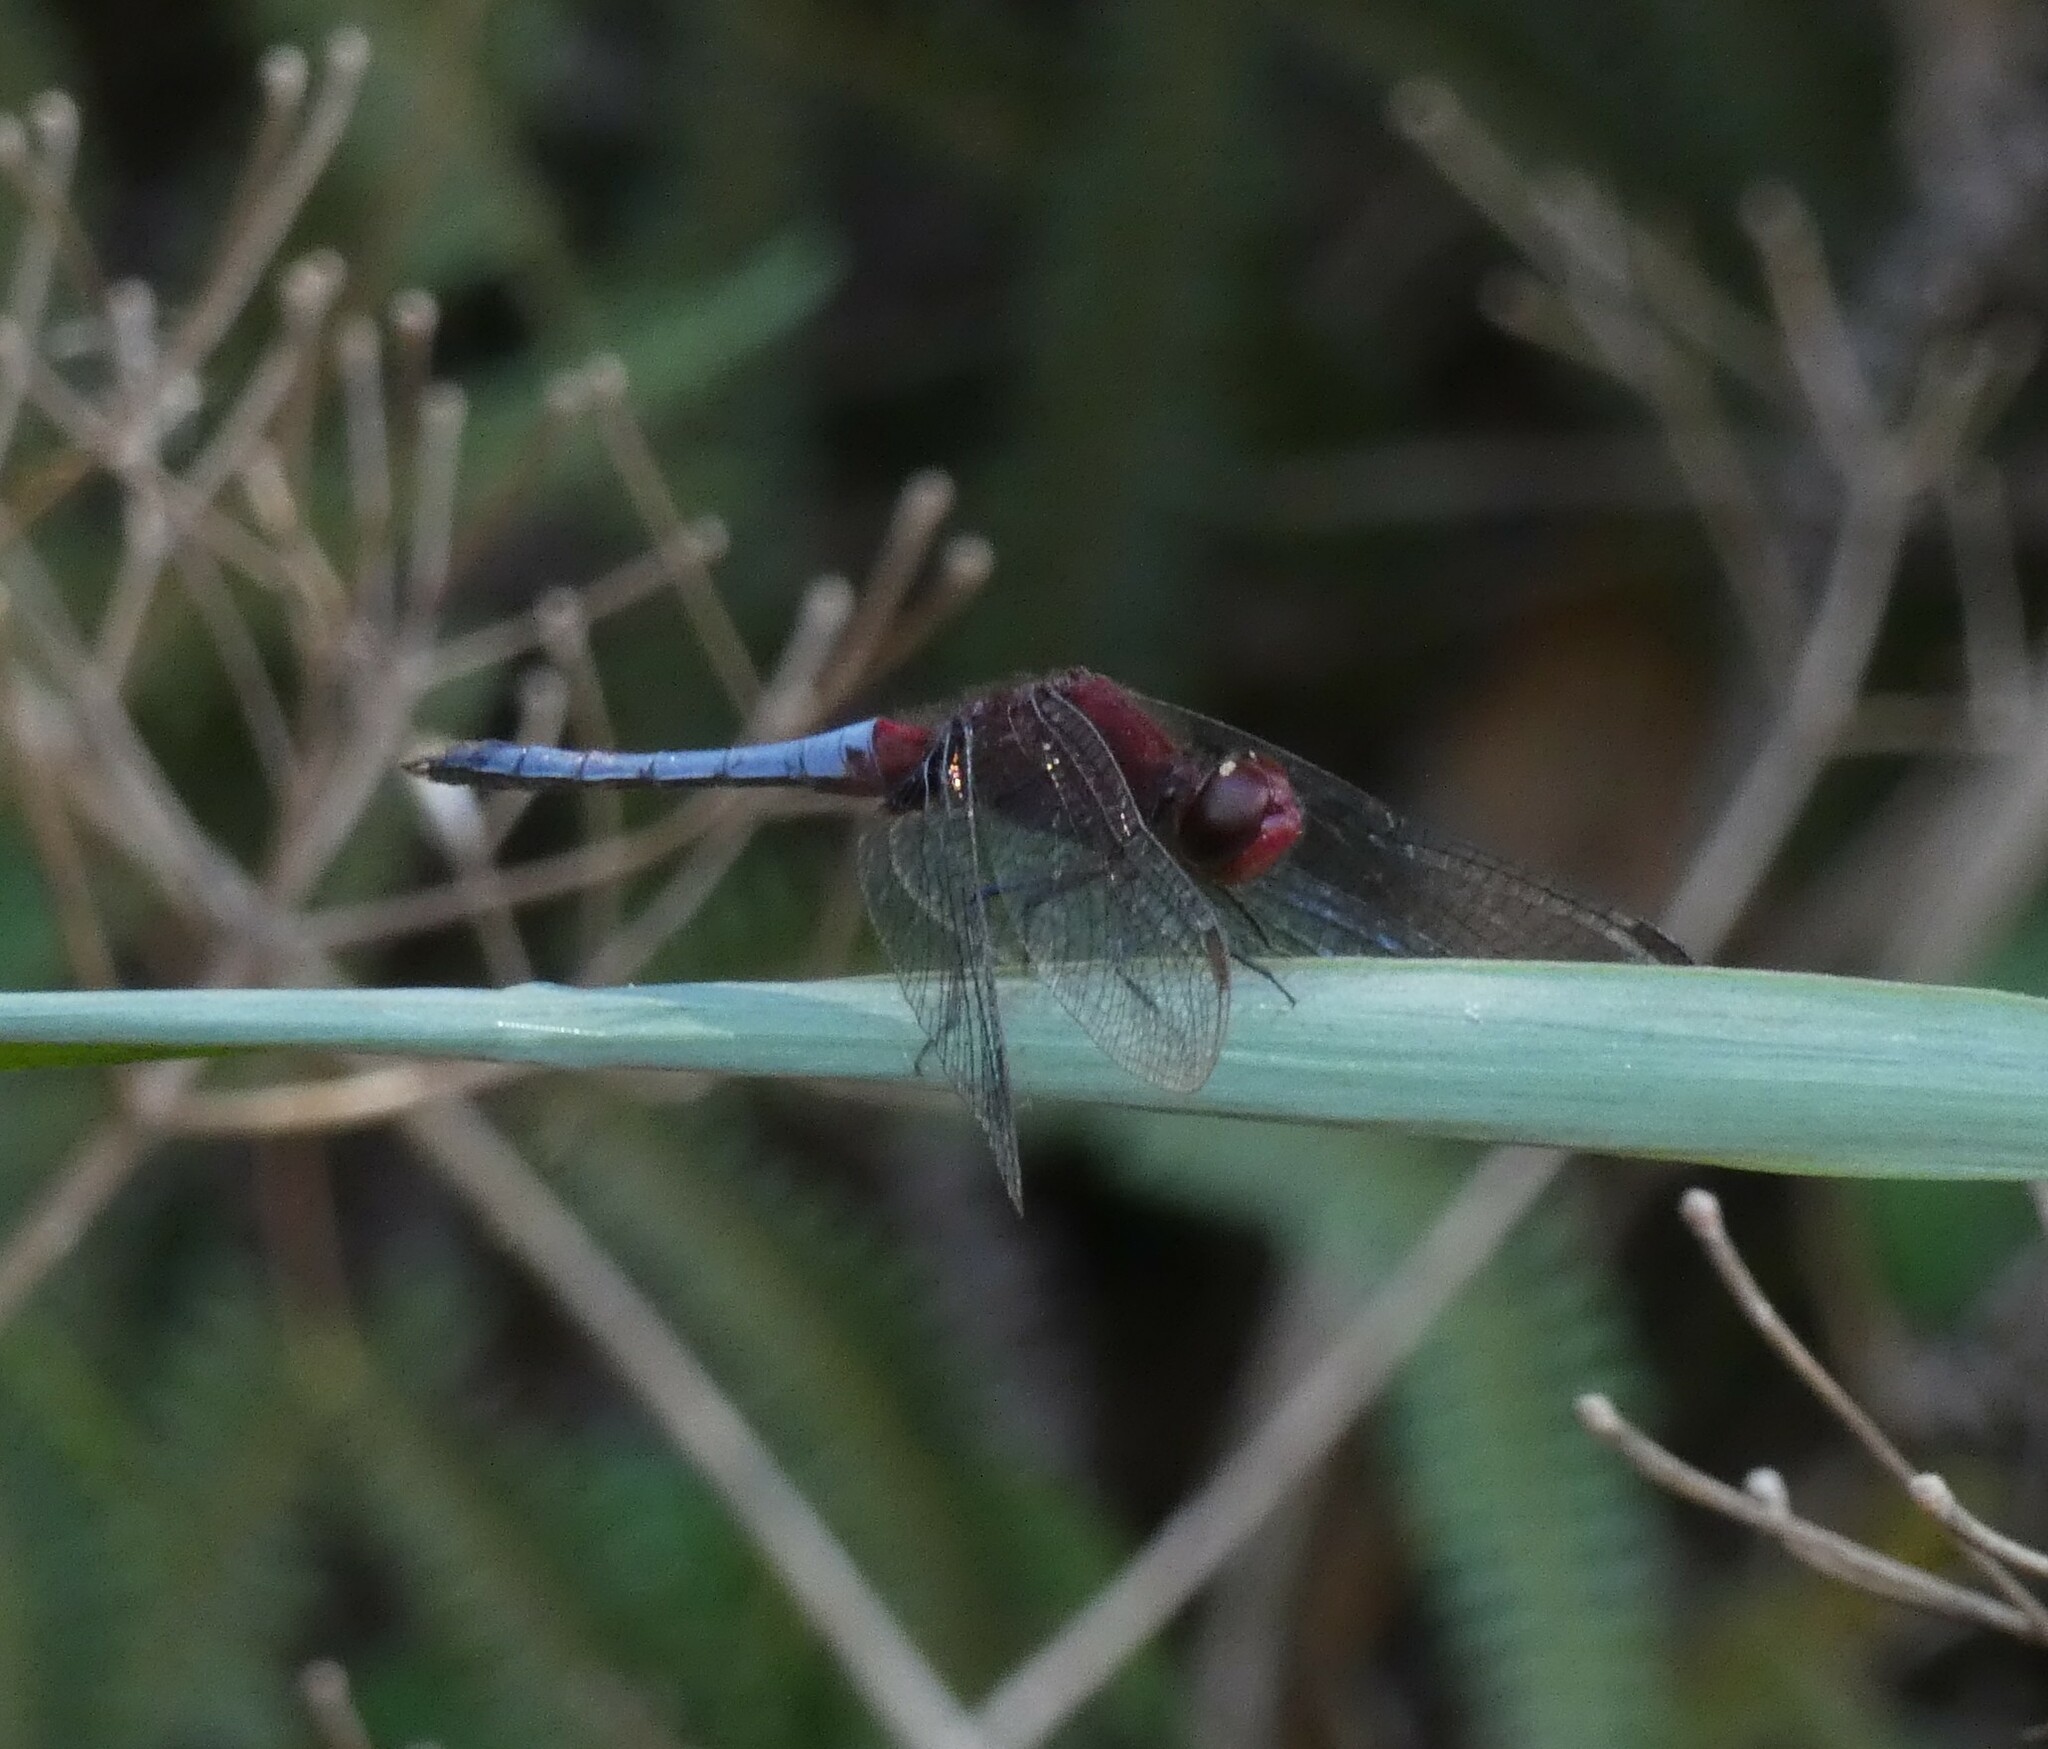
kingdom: Animalia
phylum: Arthropoda
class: Insecta
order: Odonata
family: Libellulidae
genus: Erythrodiplax
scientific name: Erythrodiplax fusca
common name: Red-faced dragonlet
